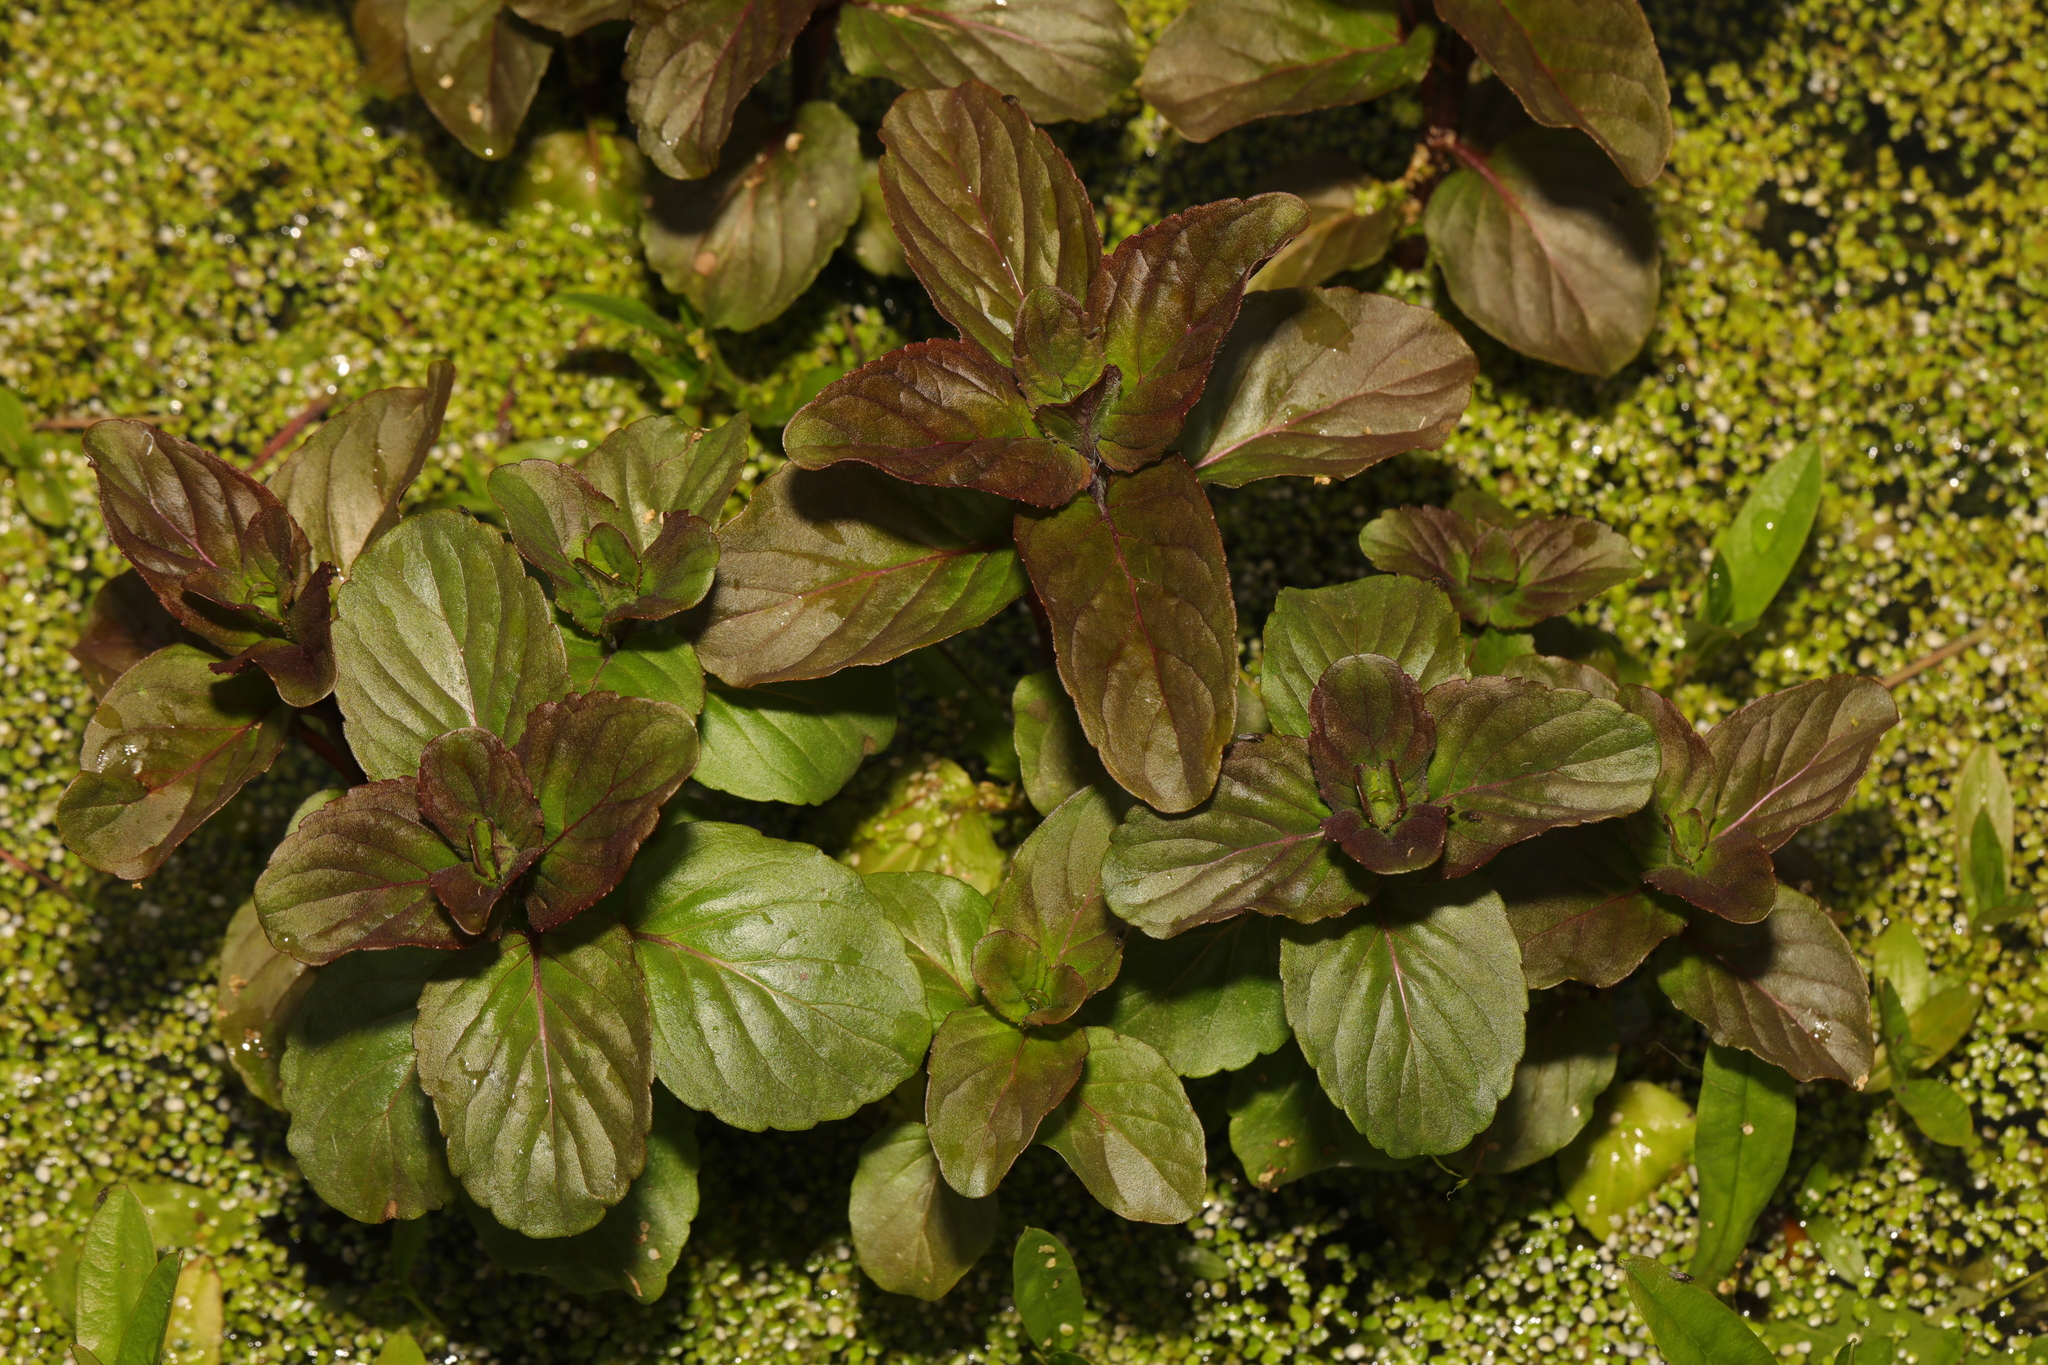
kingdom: Plantae
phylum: Tracheophyta
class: Magnoliopsida
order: Lamiales
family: Lamiaceae
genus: Mentha
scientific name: Mentha aquatica
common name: Water mint
